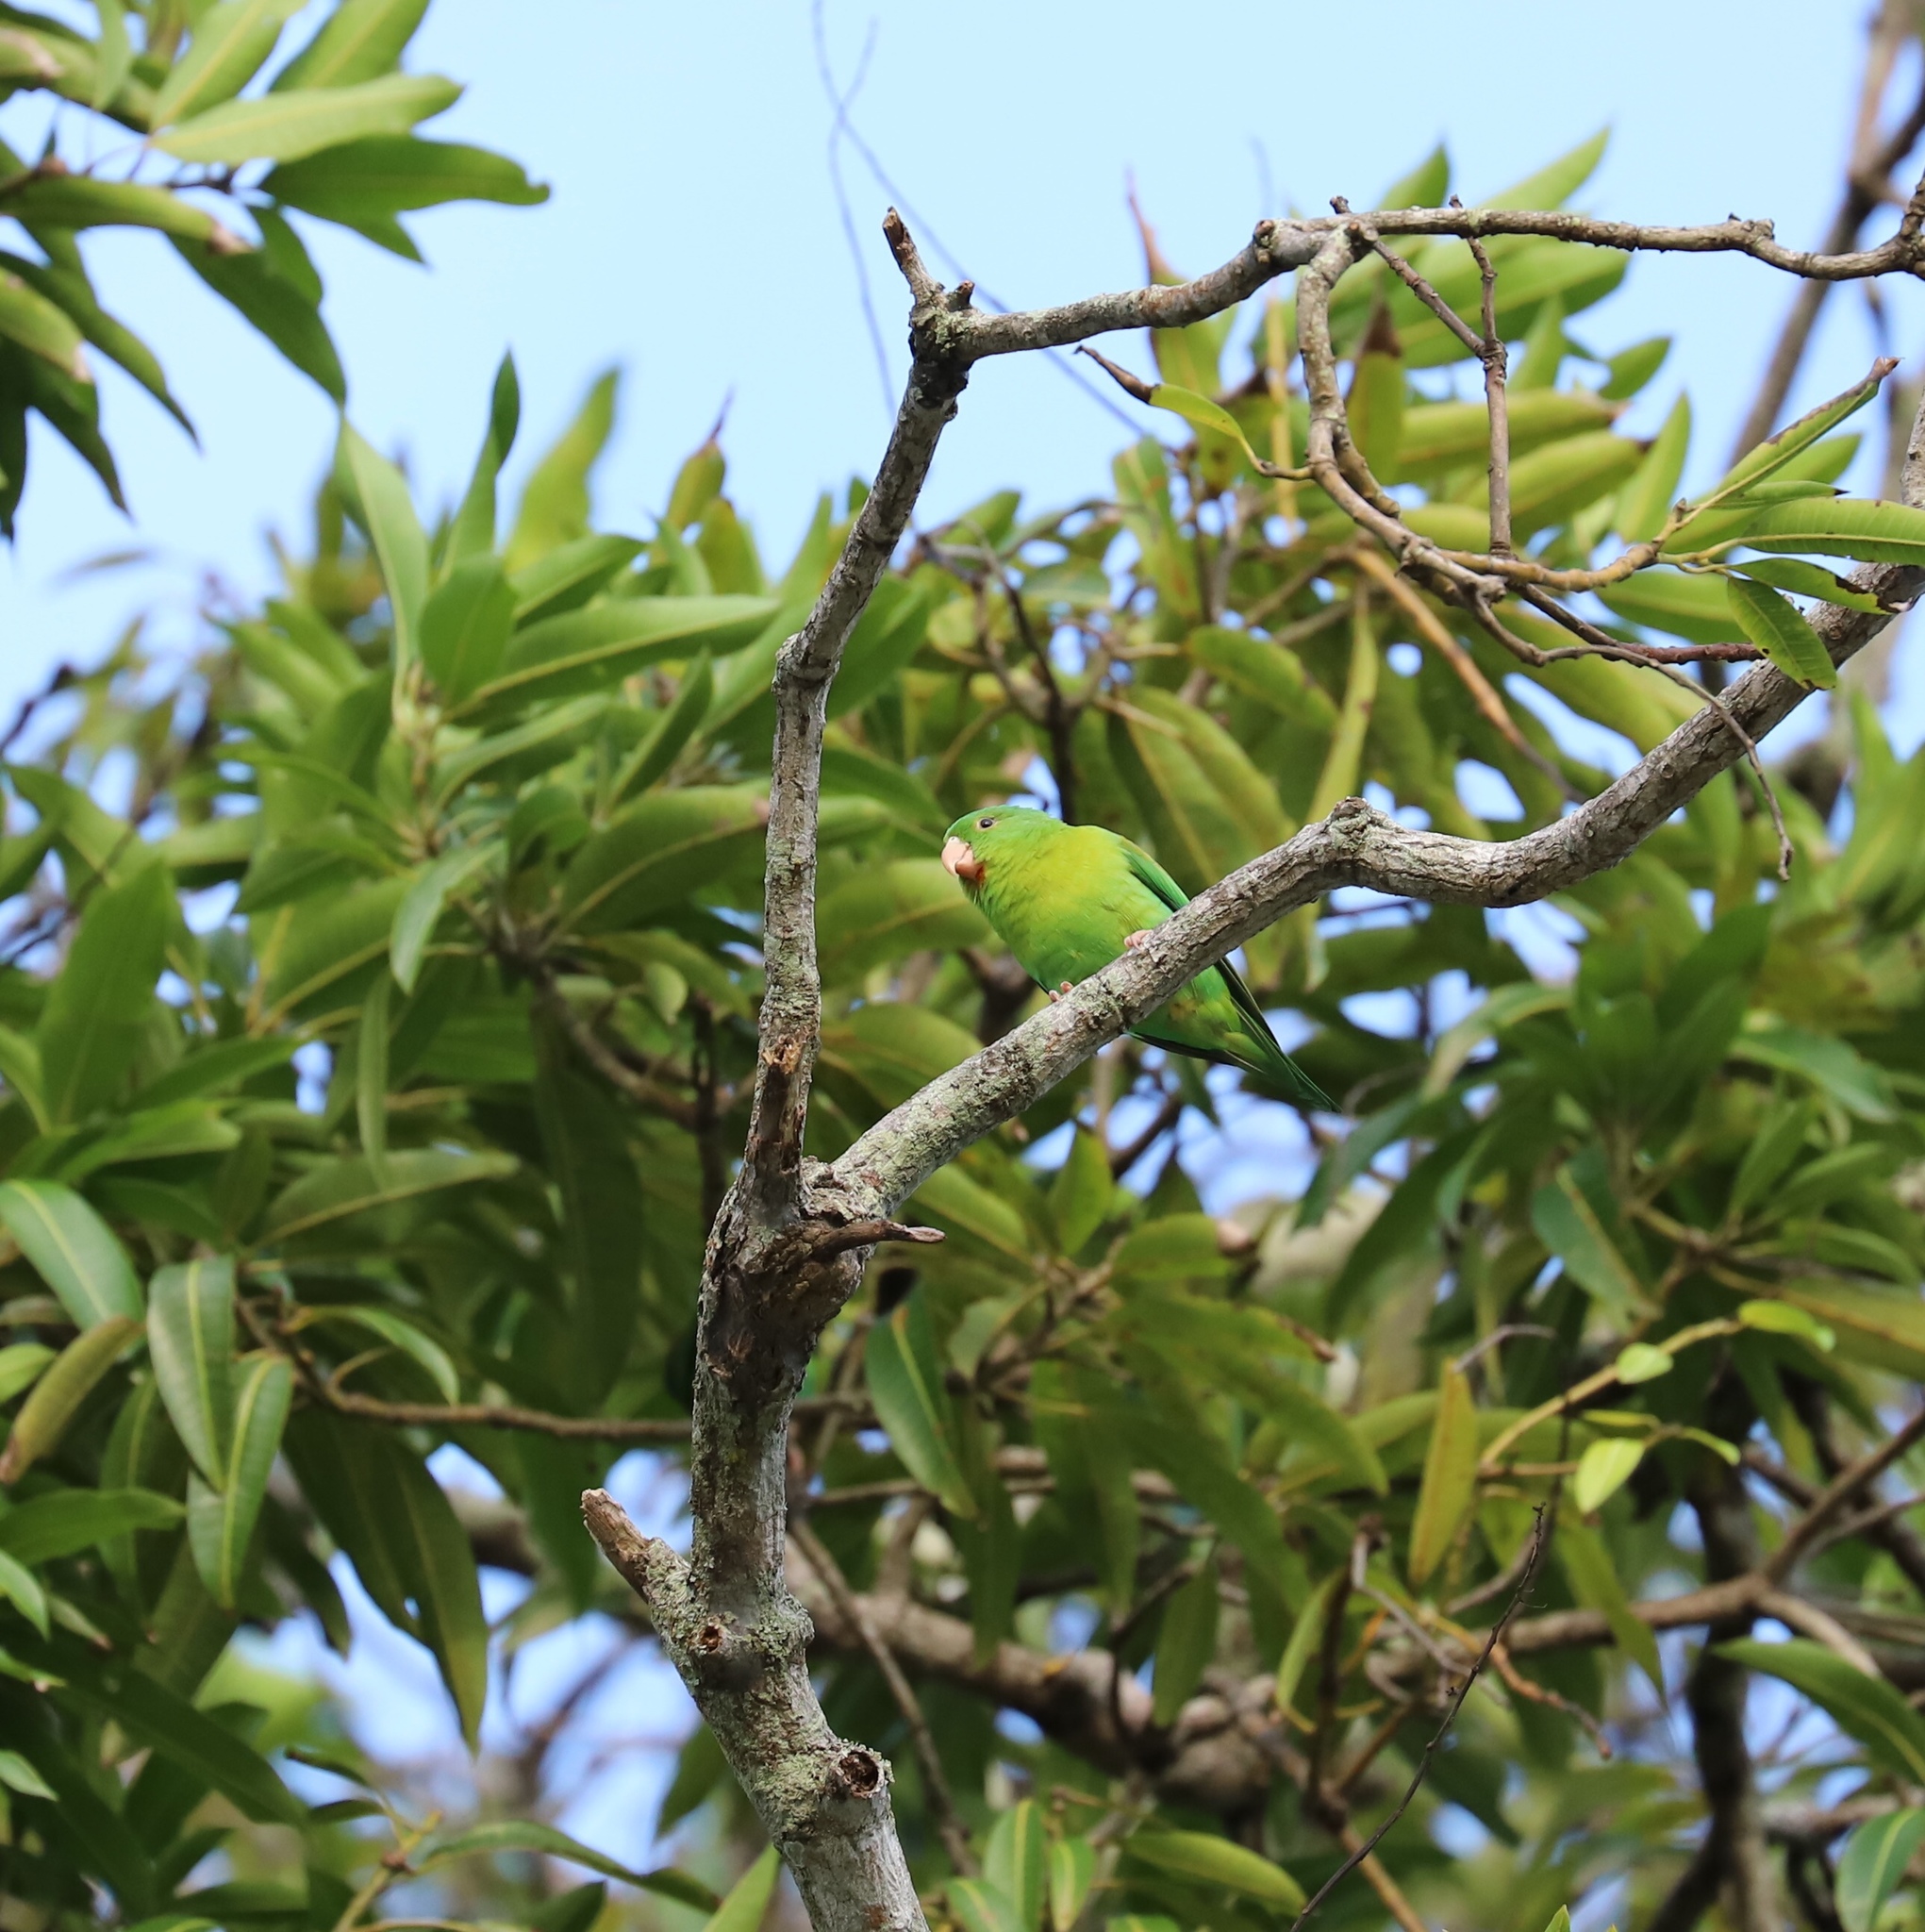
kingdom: Animalia
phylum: Chordata
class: Aves
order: Psittaciformes
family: Psittacidae
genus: Brotogeris
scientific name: Brotogeris jugularis
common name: Orange-chinned parakeet
